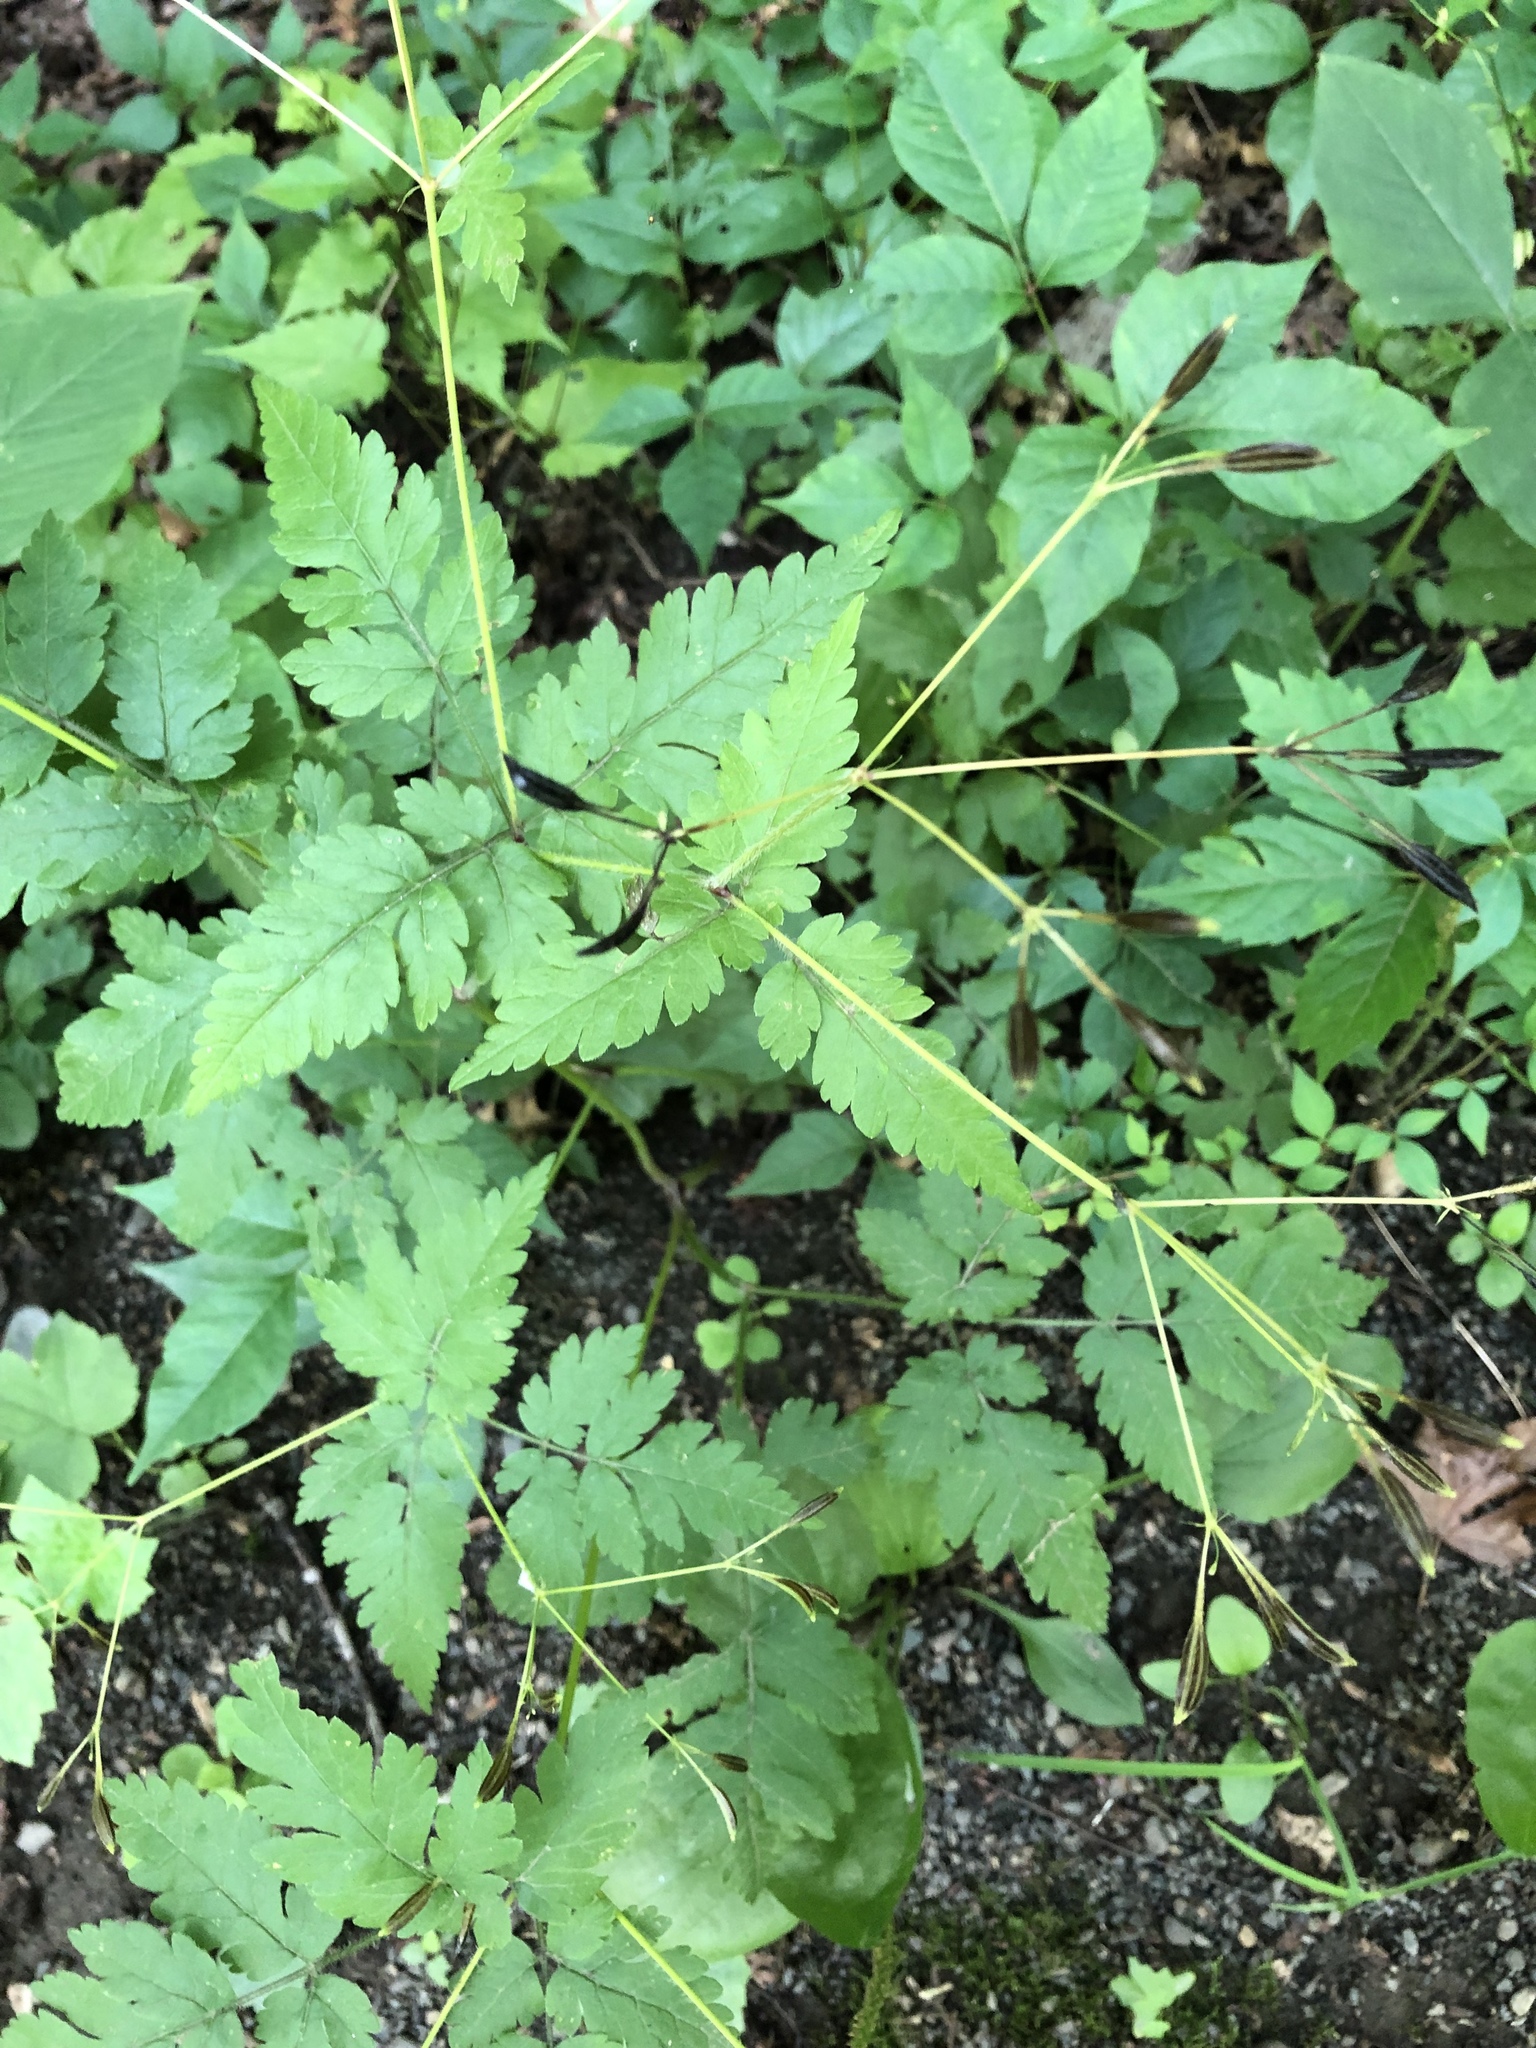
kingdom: Plantae
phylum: Tracheophyta
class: Magnoliopsida
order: Apiales
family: Apiaceae
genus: Osmorhiza
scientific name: Osmorhiza claytonii
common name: Hairy sweet cicely
